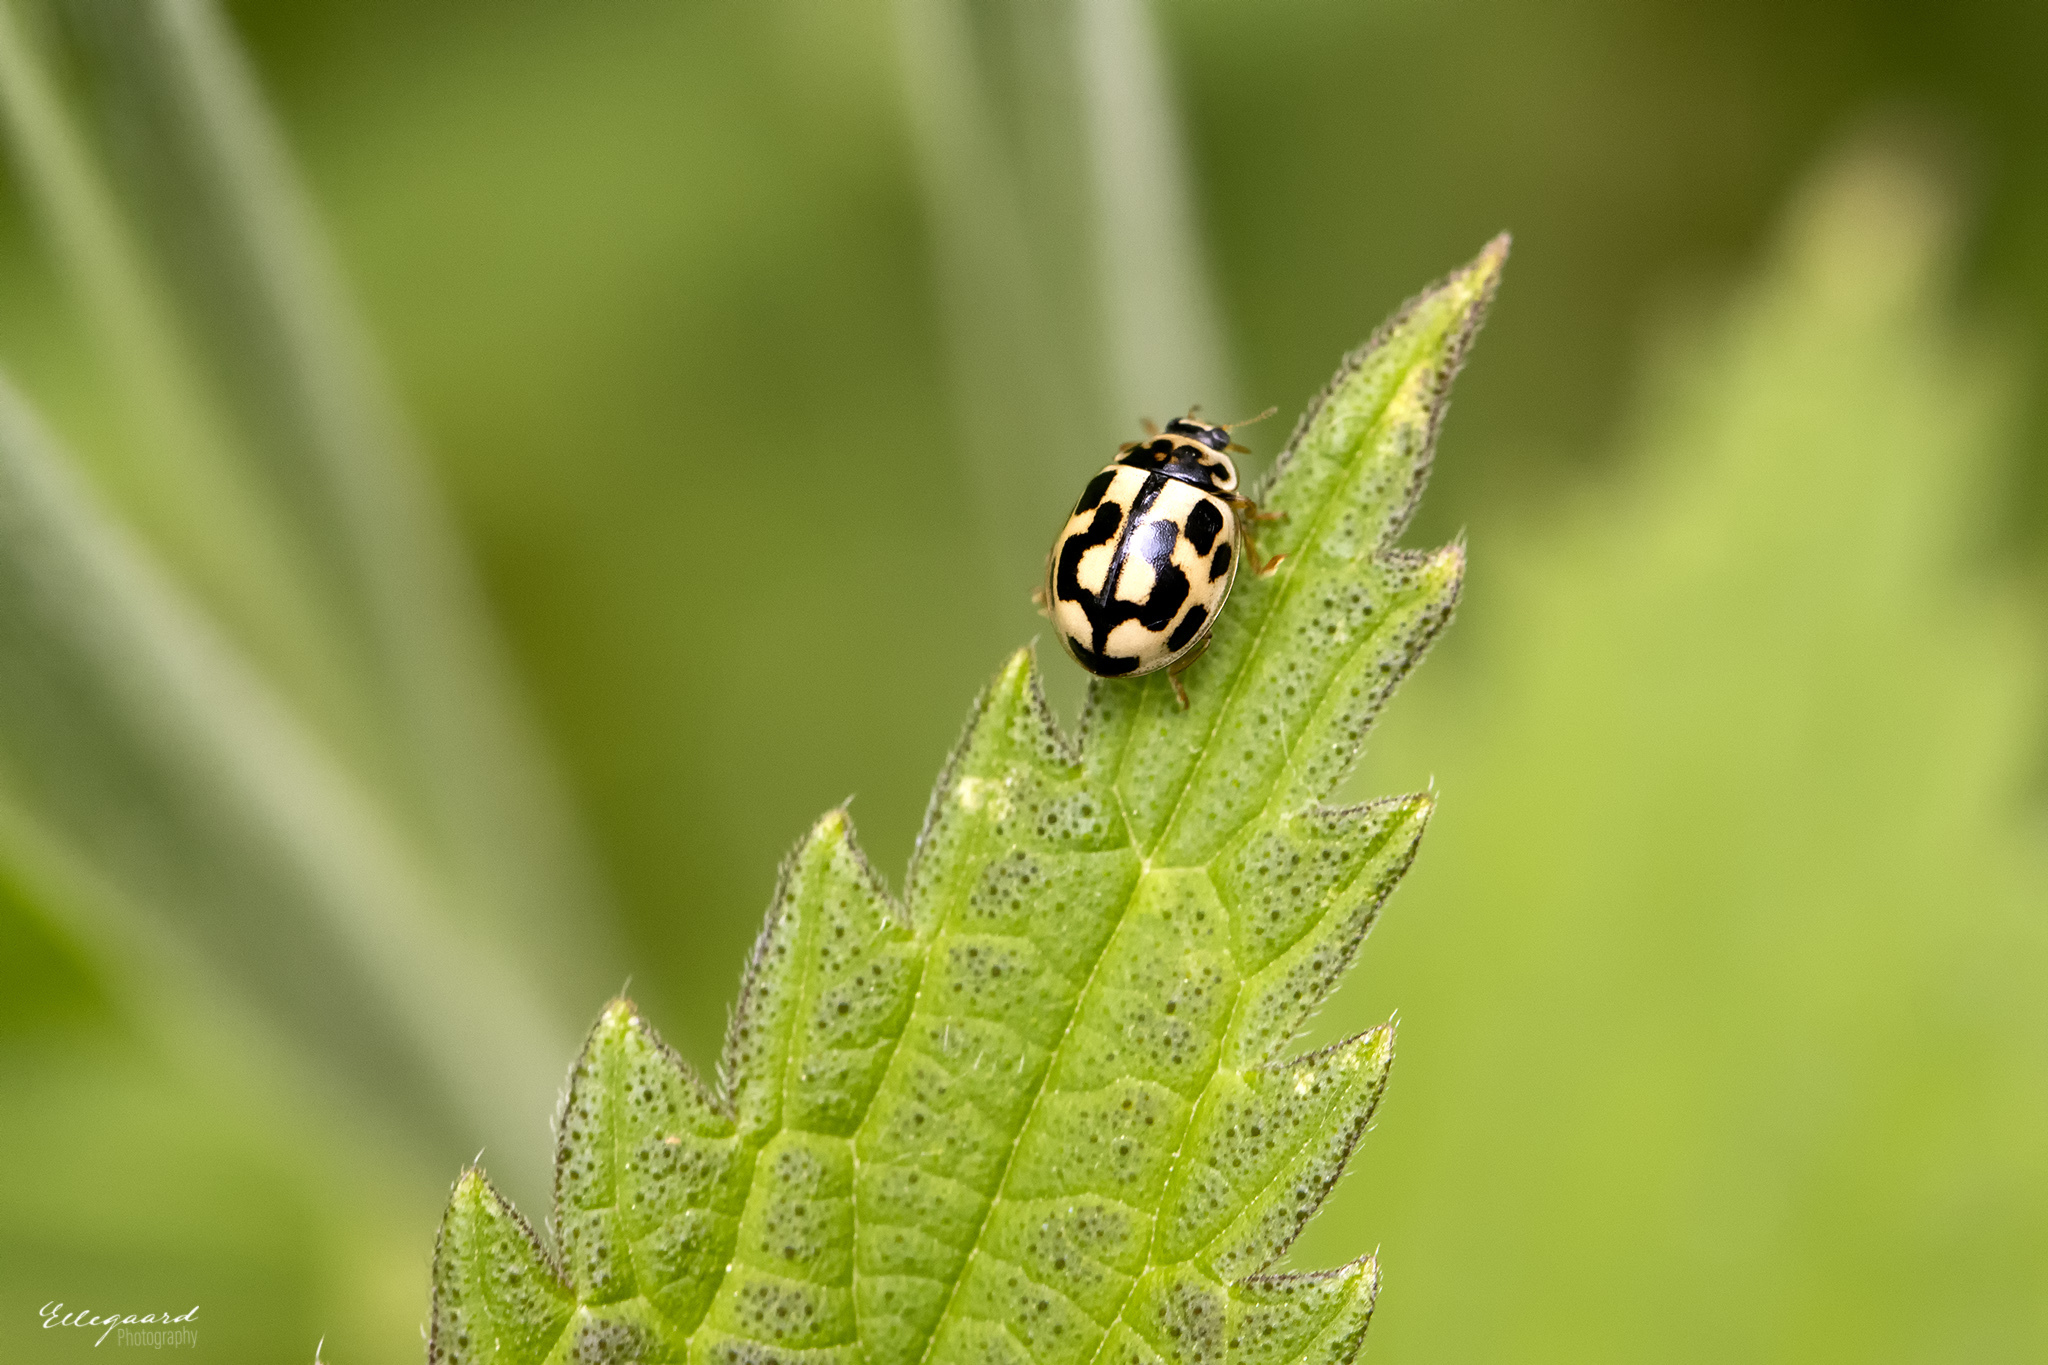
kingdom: Animalia
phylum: Arthropoda
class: Insecta
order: Coleoptera
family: Coccinellidae
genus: Propylaea
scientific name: Propylaea quatuordecimpunctata
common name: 14-spotted ladybird beetle
